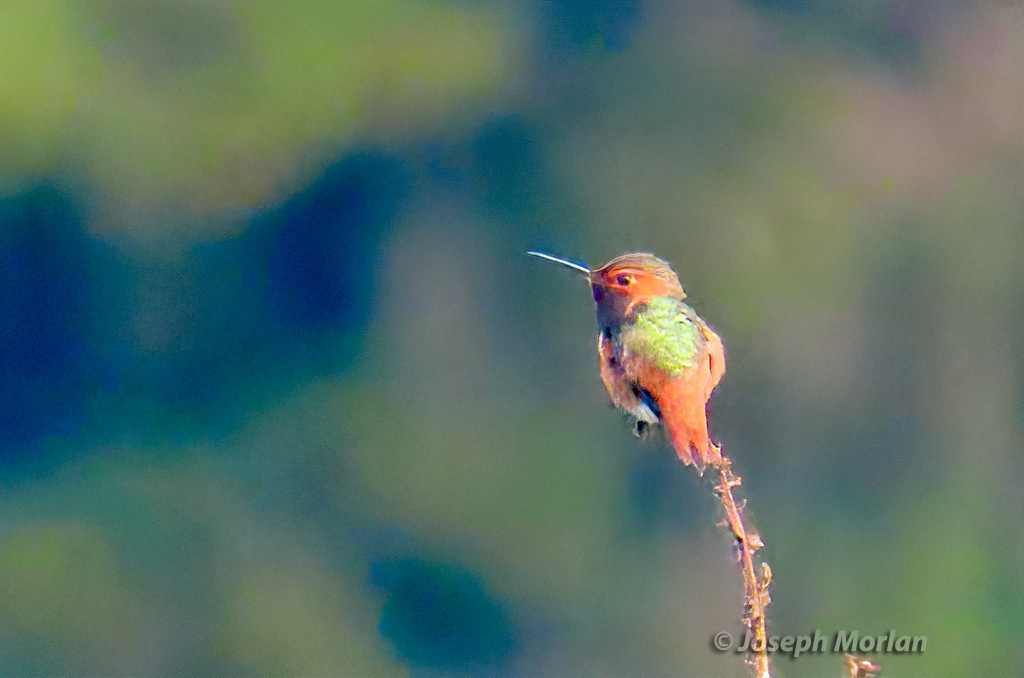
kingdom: Animalia
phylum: Chordata
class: Aves
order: Apodiformes
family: Trochilidae
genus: Selasphorus
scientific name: Selasphorus sasin
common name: Allen's hummingbird
